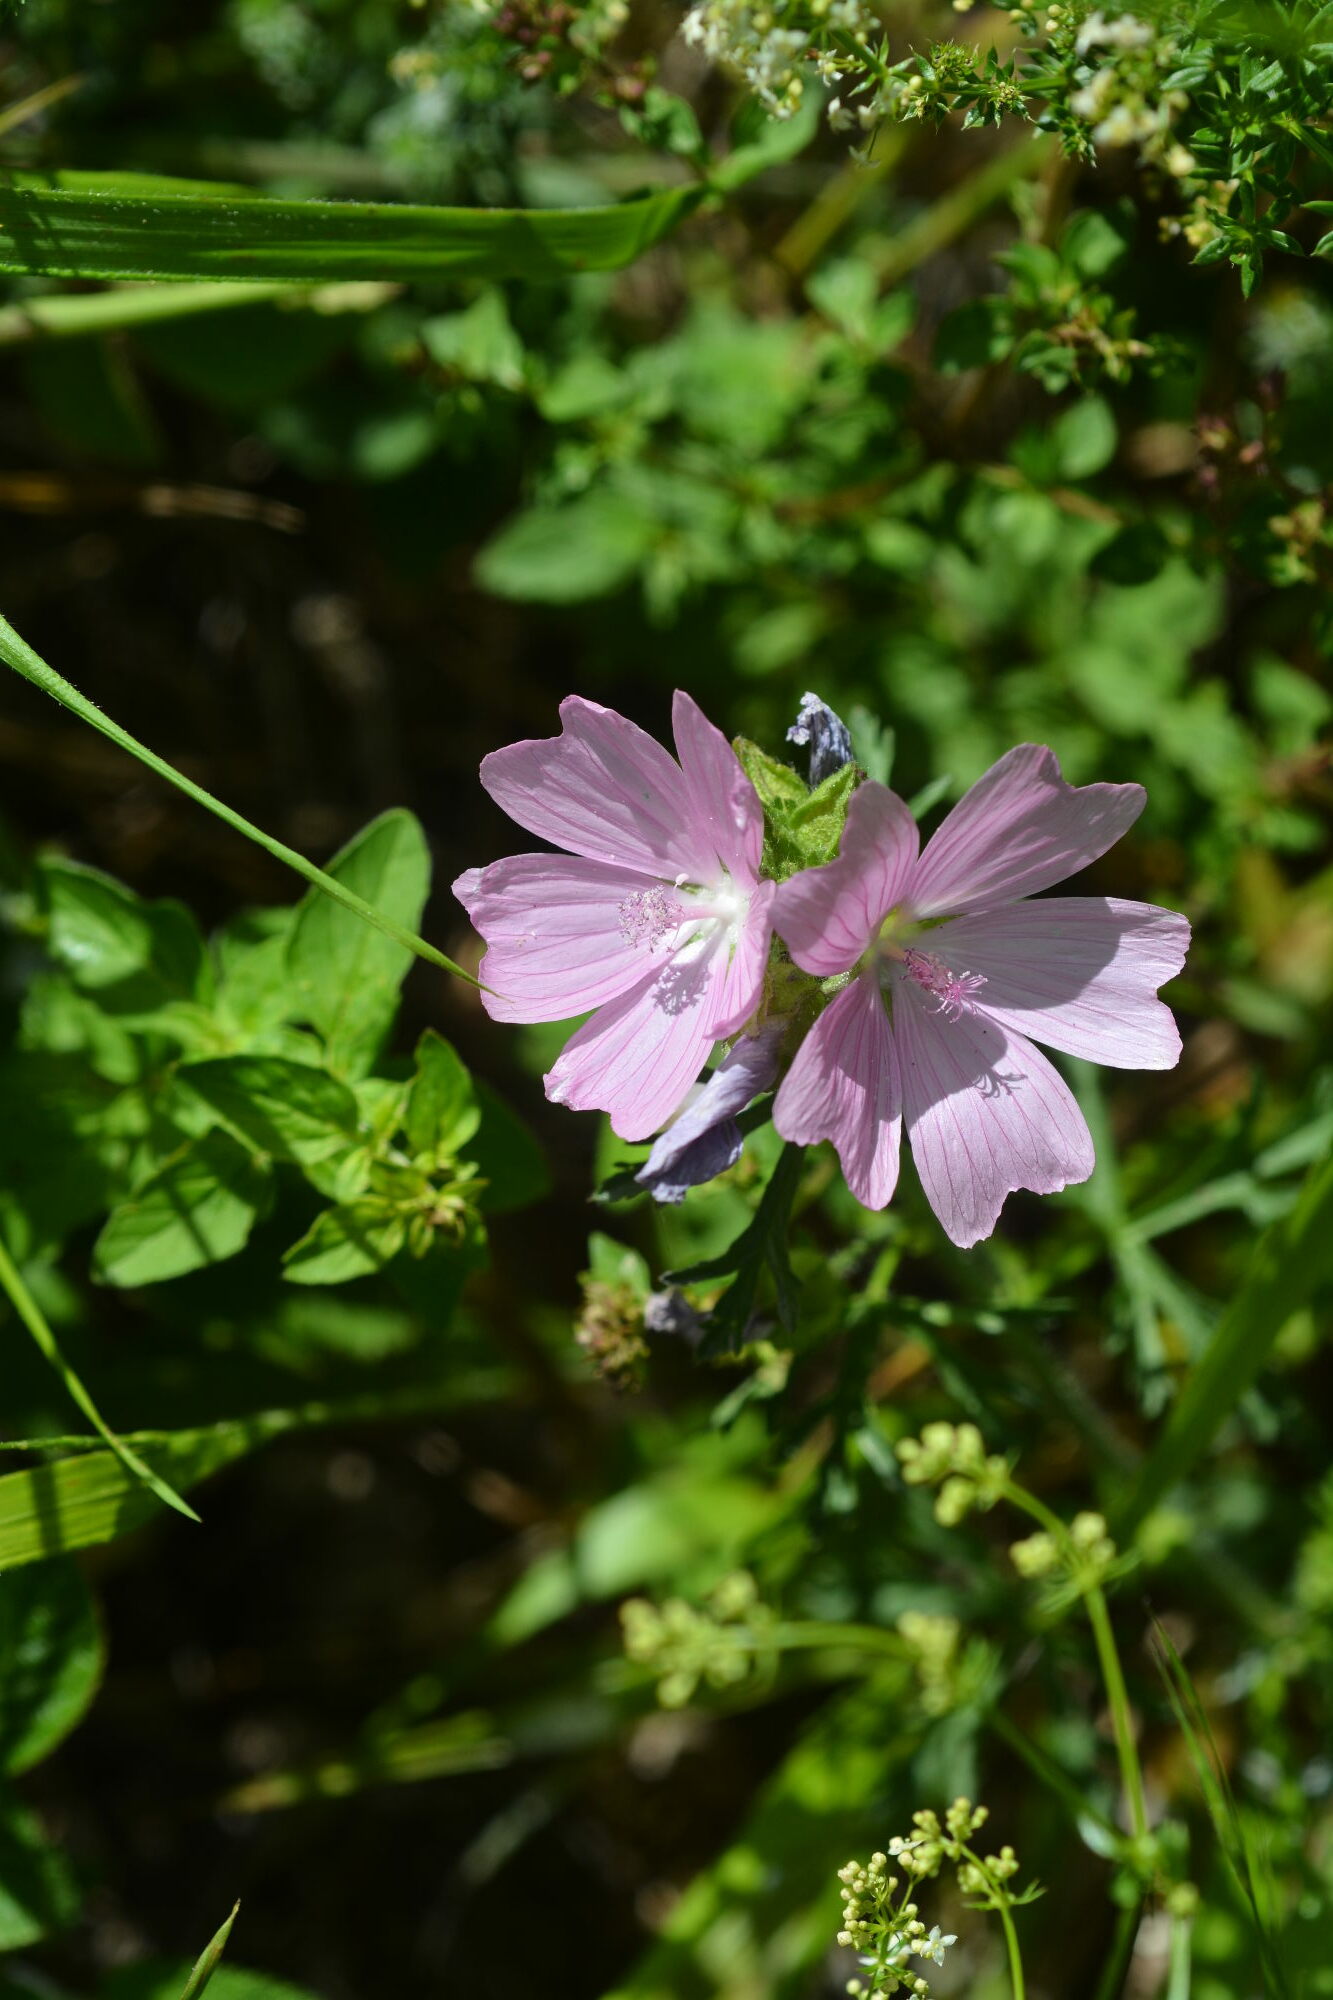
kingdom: Plantae
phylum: Tracheophyta
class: Magnoliopsida
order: Malvales
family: Malvaceae
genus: Malva
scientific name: Malva moschata
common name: Musk mallow
